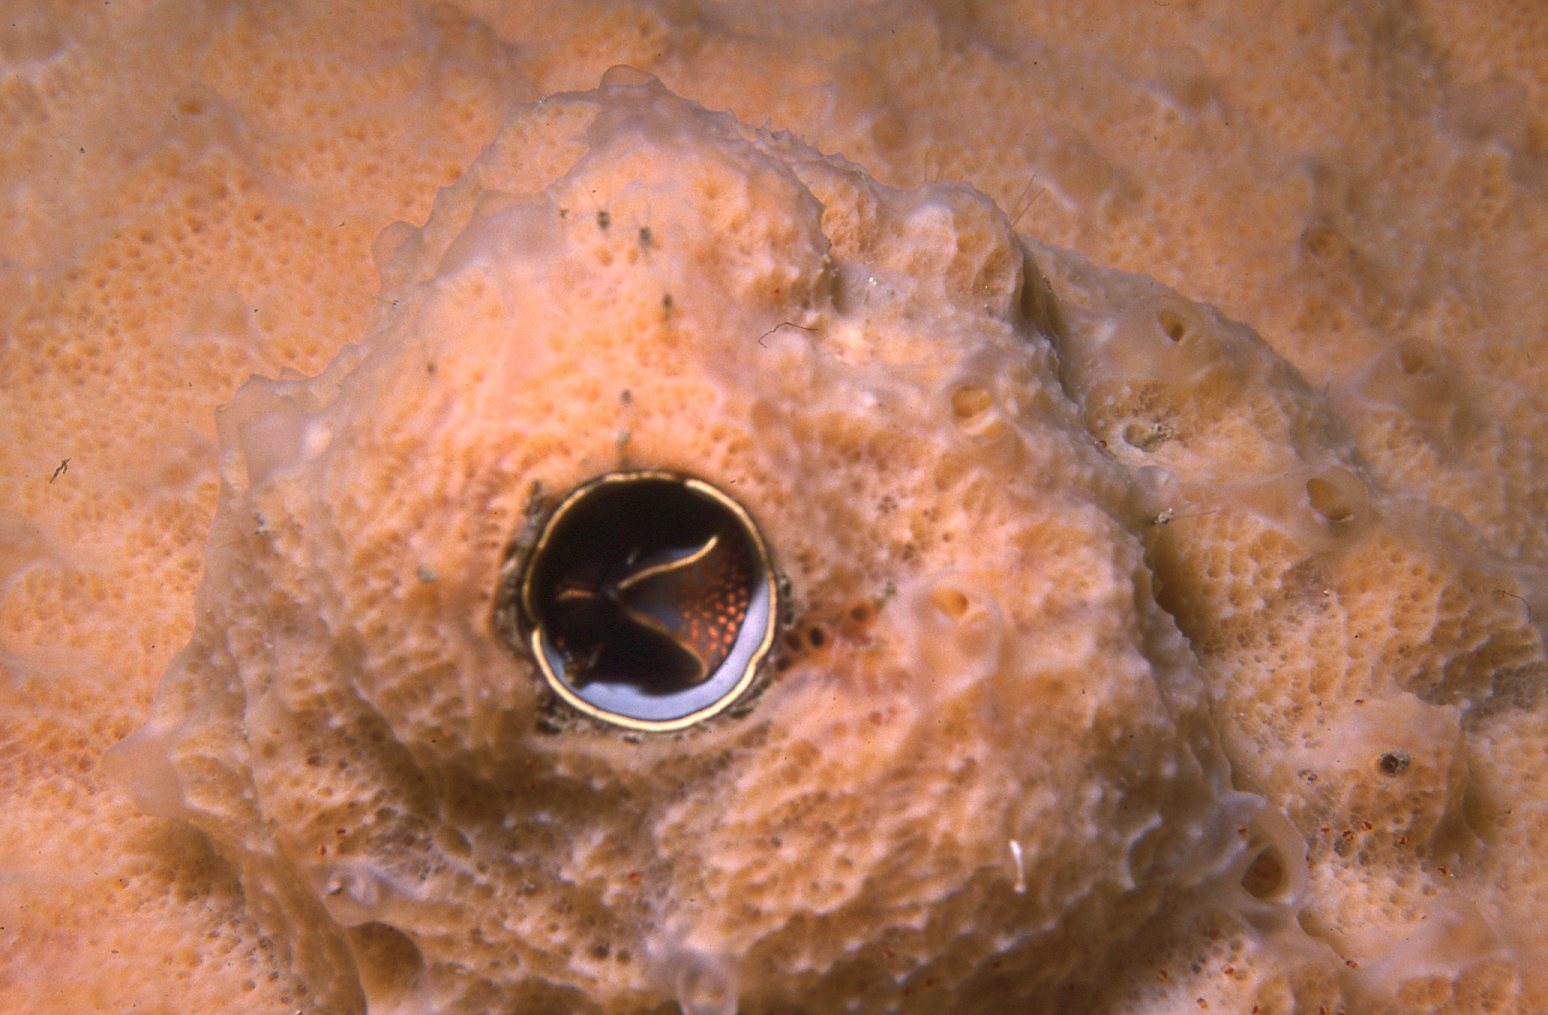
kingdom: Animalia
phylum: Mollusca
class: Gastropoda
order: Littorinimorpha
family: Vermetidae
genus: Thylacodes
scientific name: Thylacodes sipho
